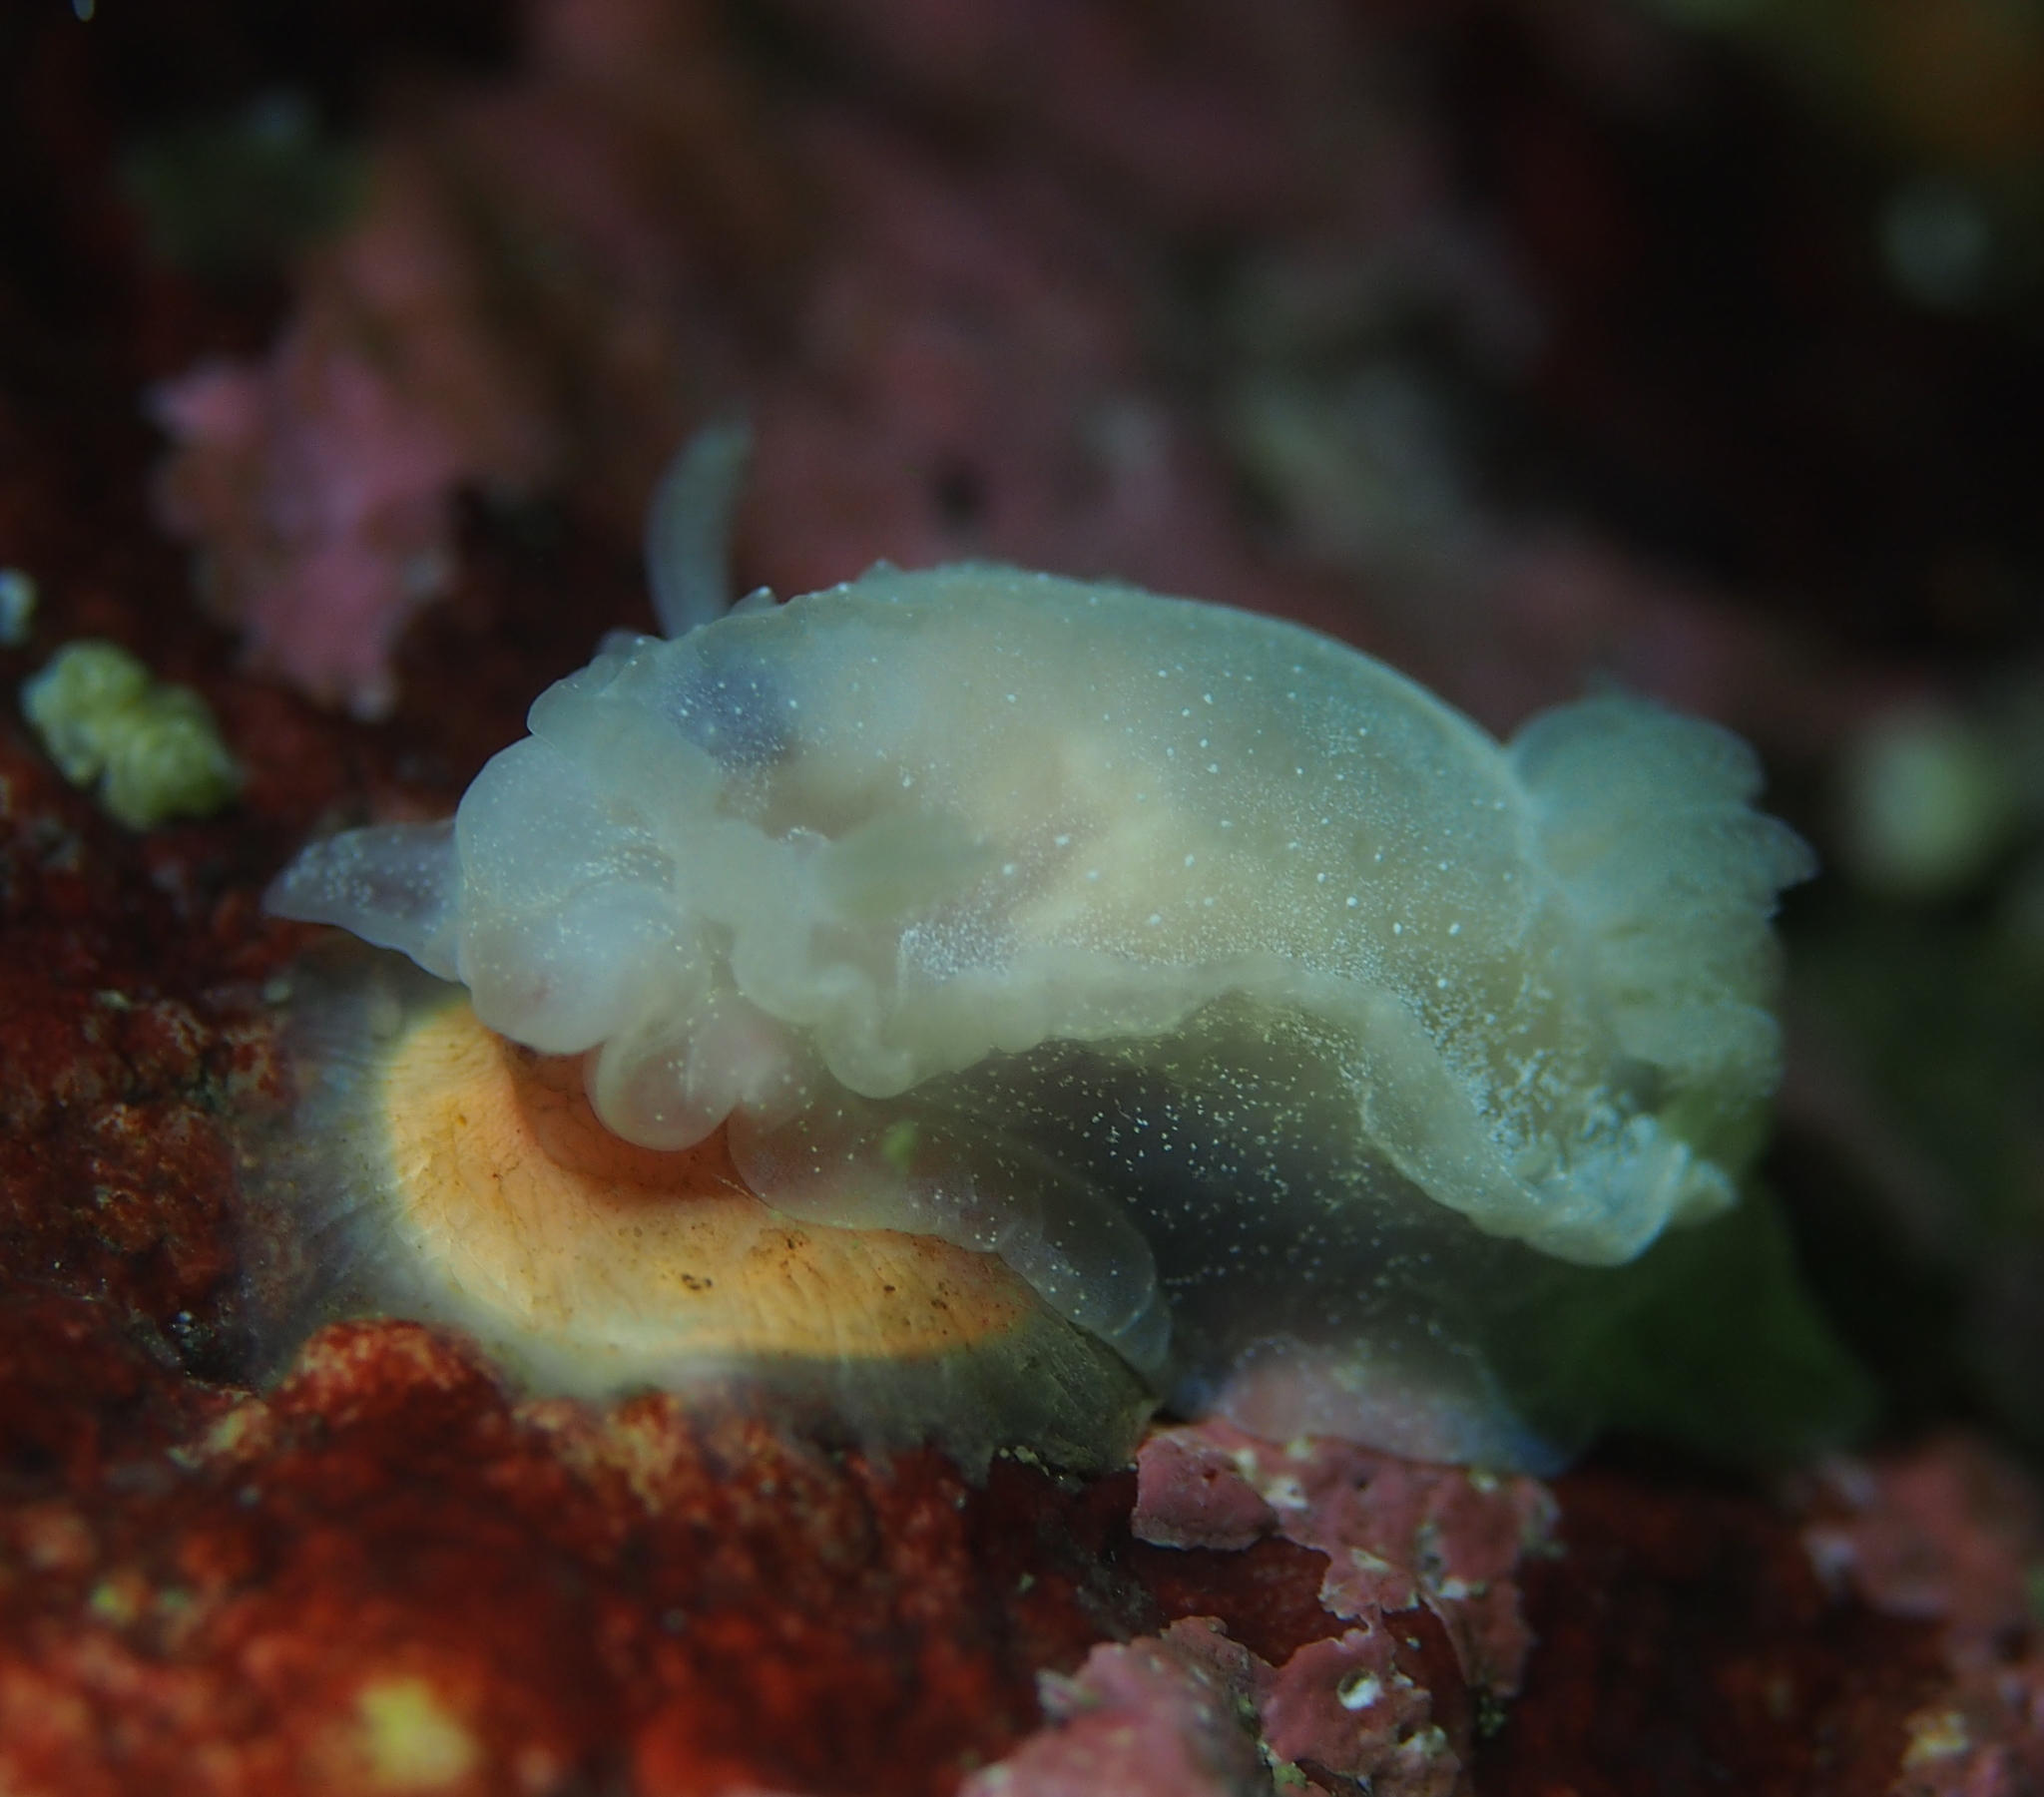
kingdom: Animalia
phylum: Mollusca
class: Gastropoda
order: Nudibranchia
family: Goniodorididae
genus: Okenia
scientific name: Okenia
